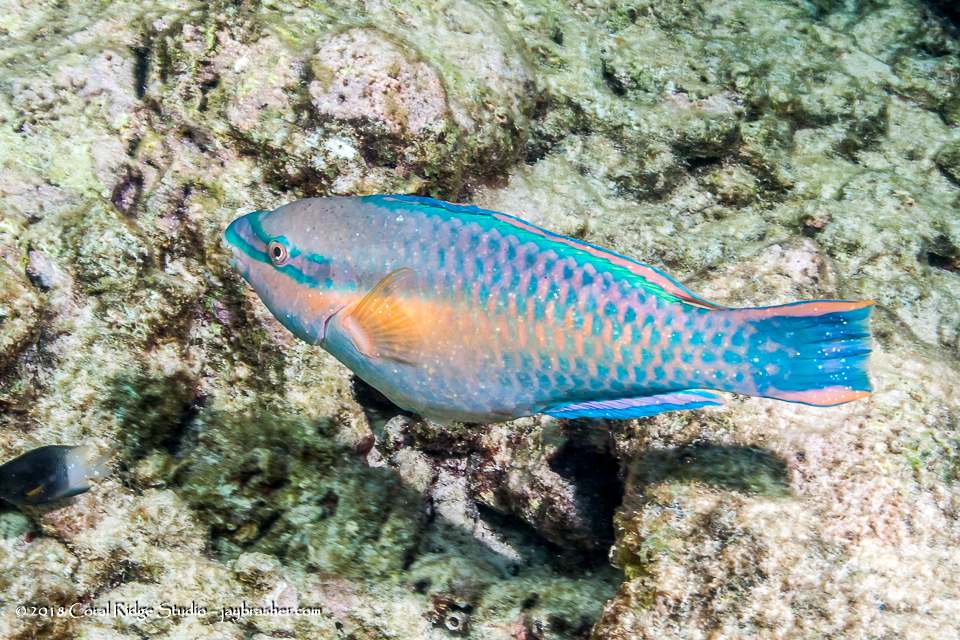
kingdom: Animalia
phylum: Chordata
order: Perciformes
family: Scaridae
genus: Scarus
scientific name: Scarus taeniopterus
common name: Princess parrotfish
